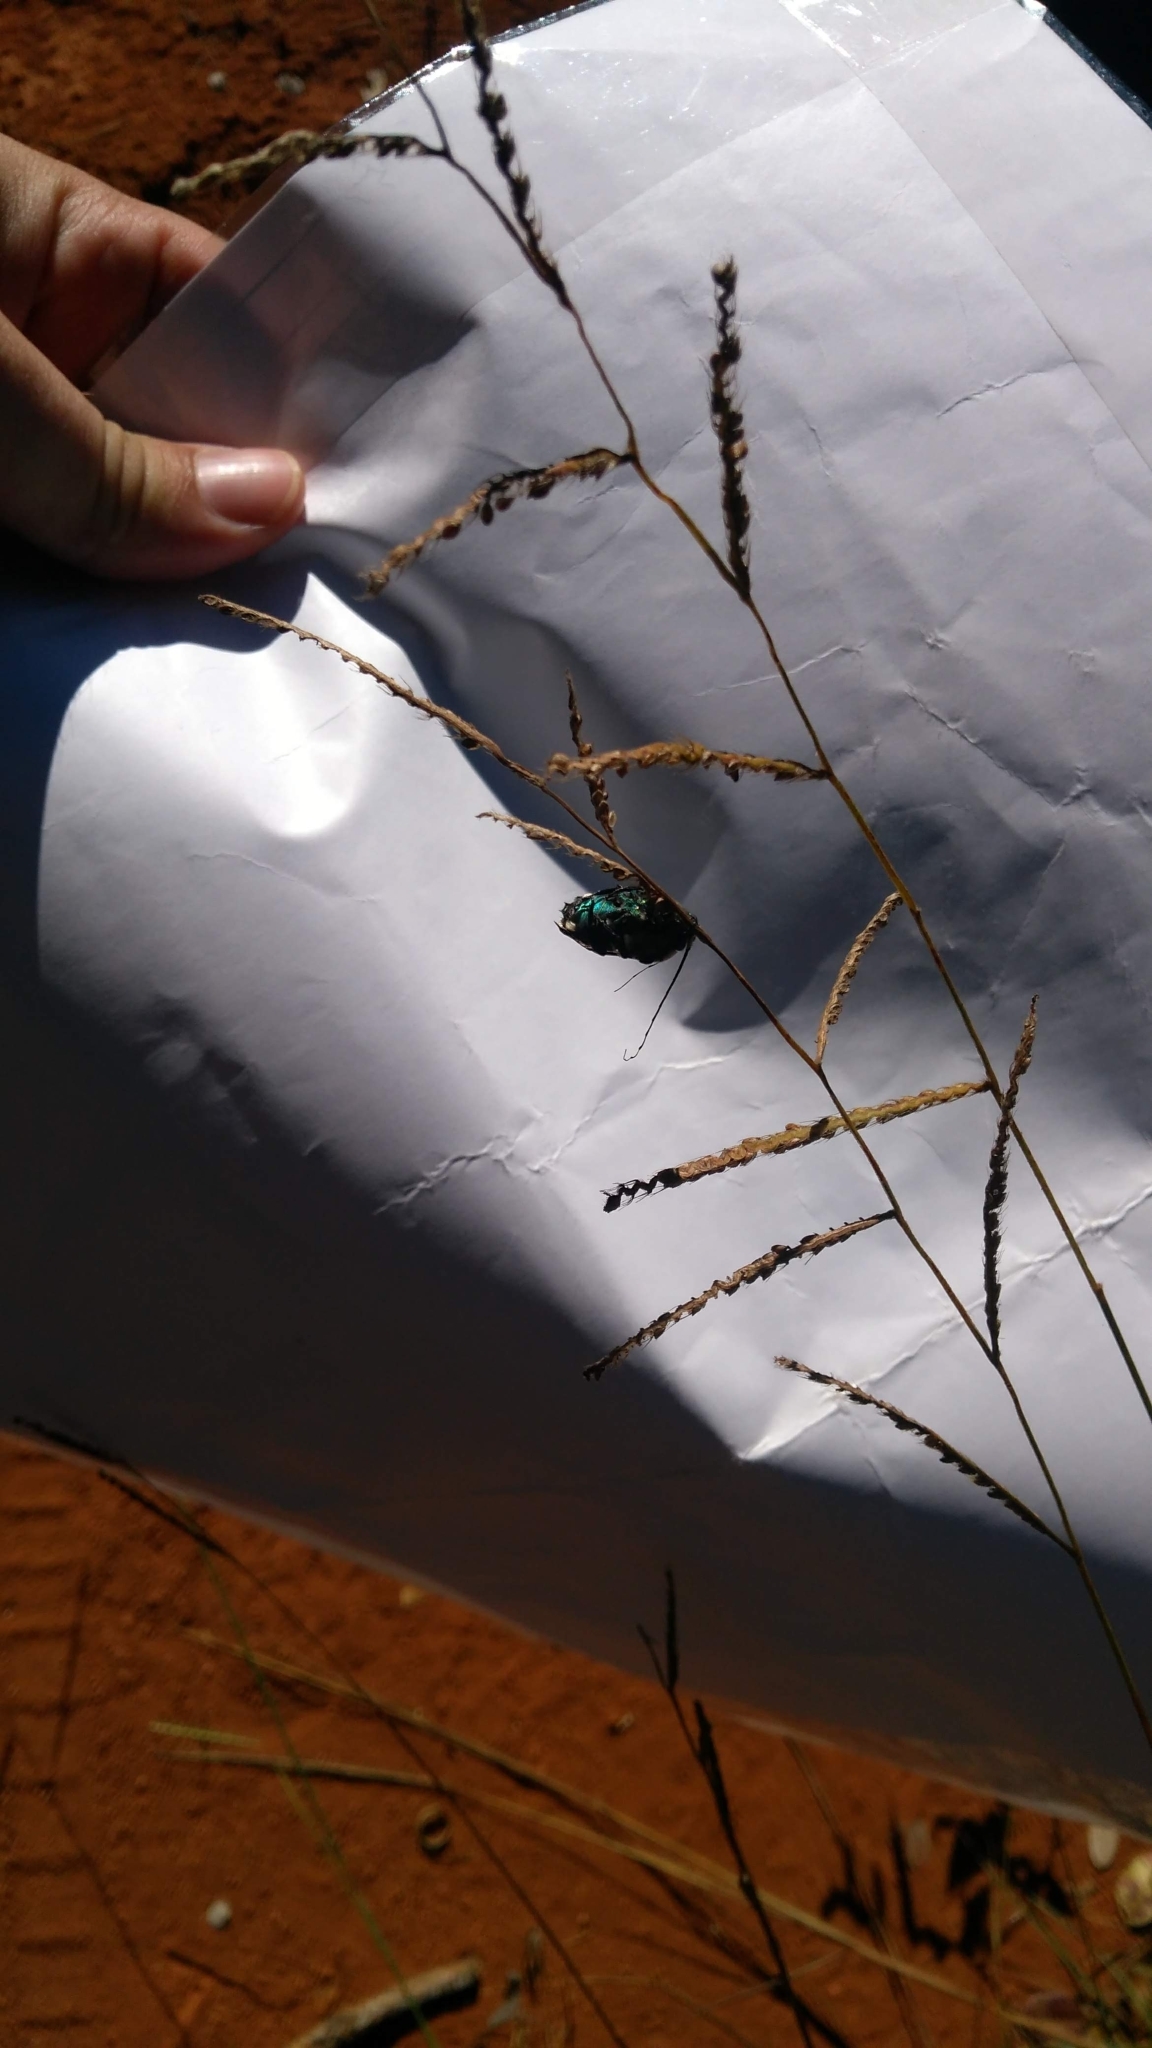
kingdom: Animalia
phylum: Arthropoda
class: Insecta
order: Hymenoptera
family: Apidae
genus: Ctenioschelus
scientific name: Ctenioschelus goryi
